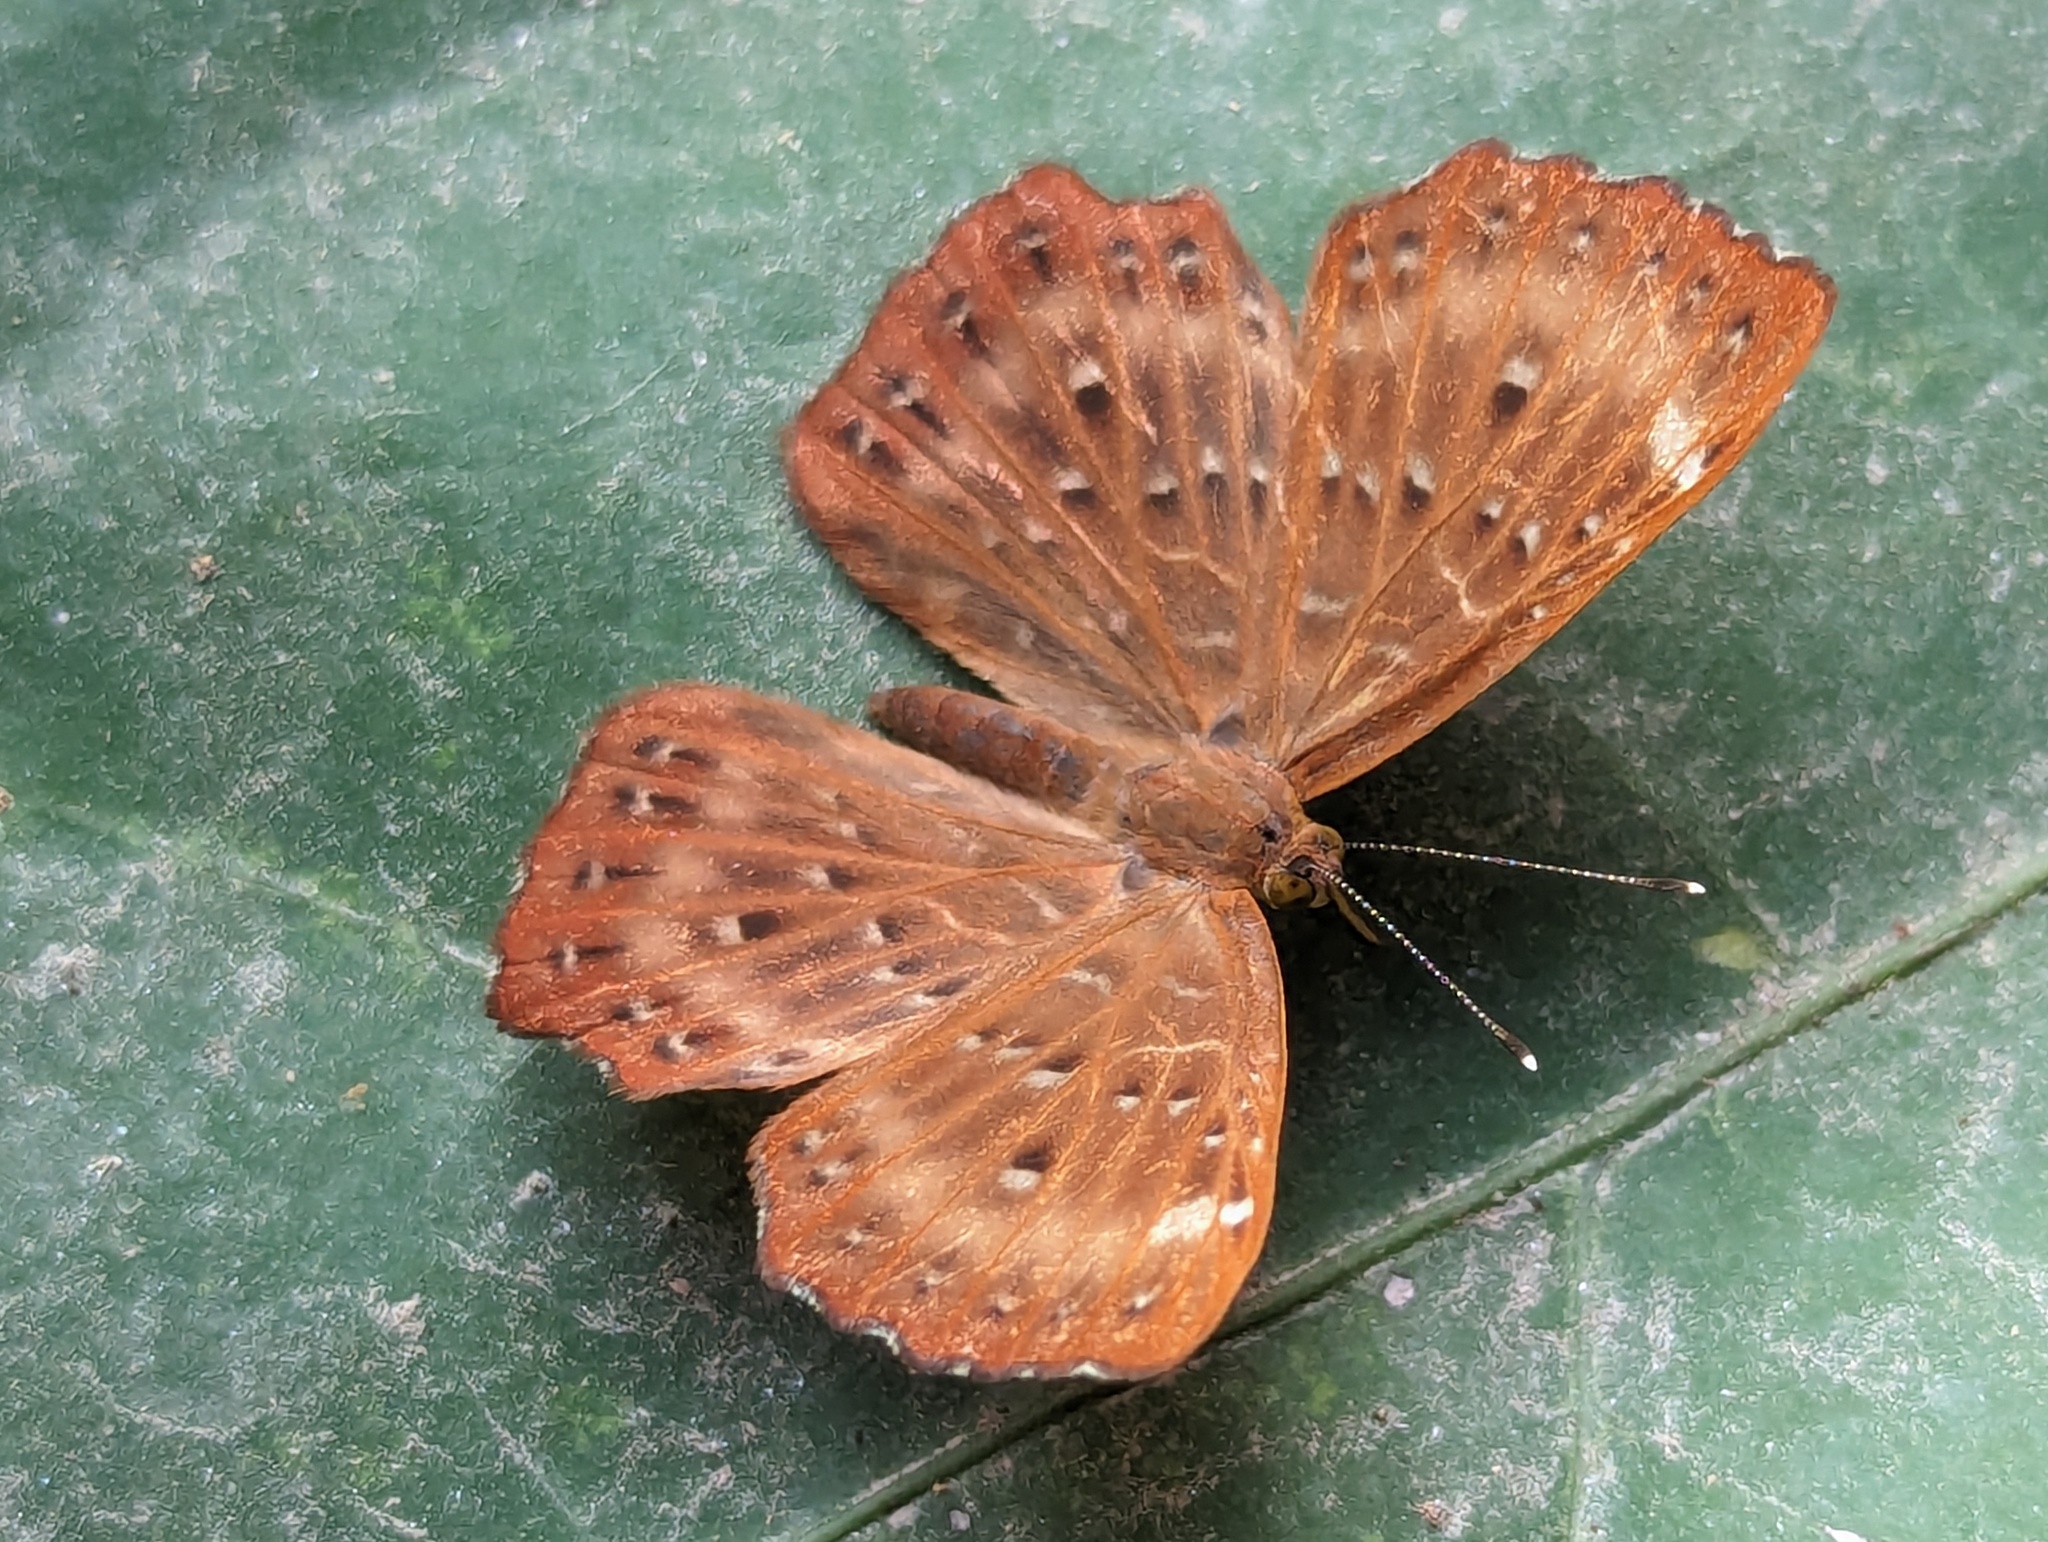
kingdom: Animalia
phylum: Arthropoda
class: Insecta
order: Lepidoptera
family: Riodinidae
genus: Zemeros
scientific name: Zemeros flegyas
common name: Punchinello
